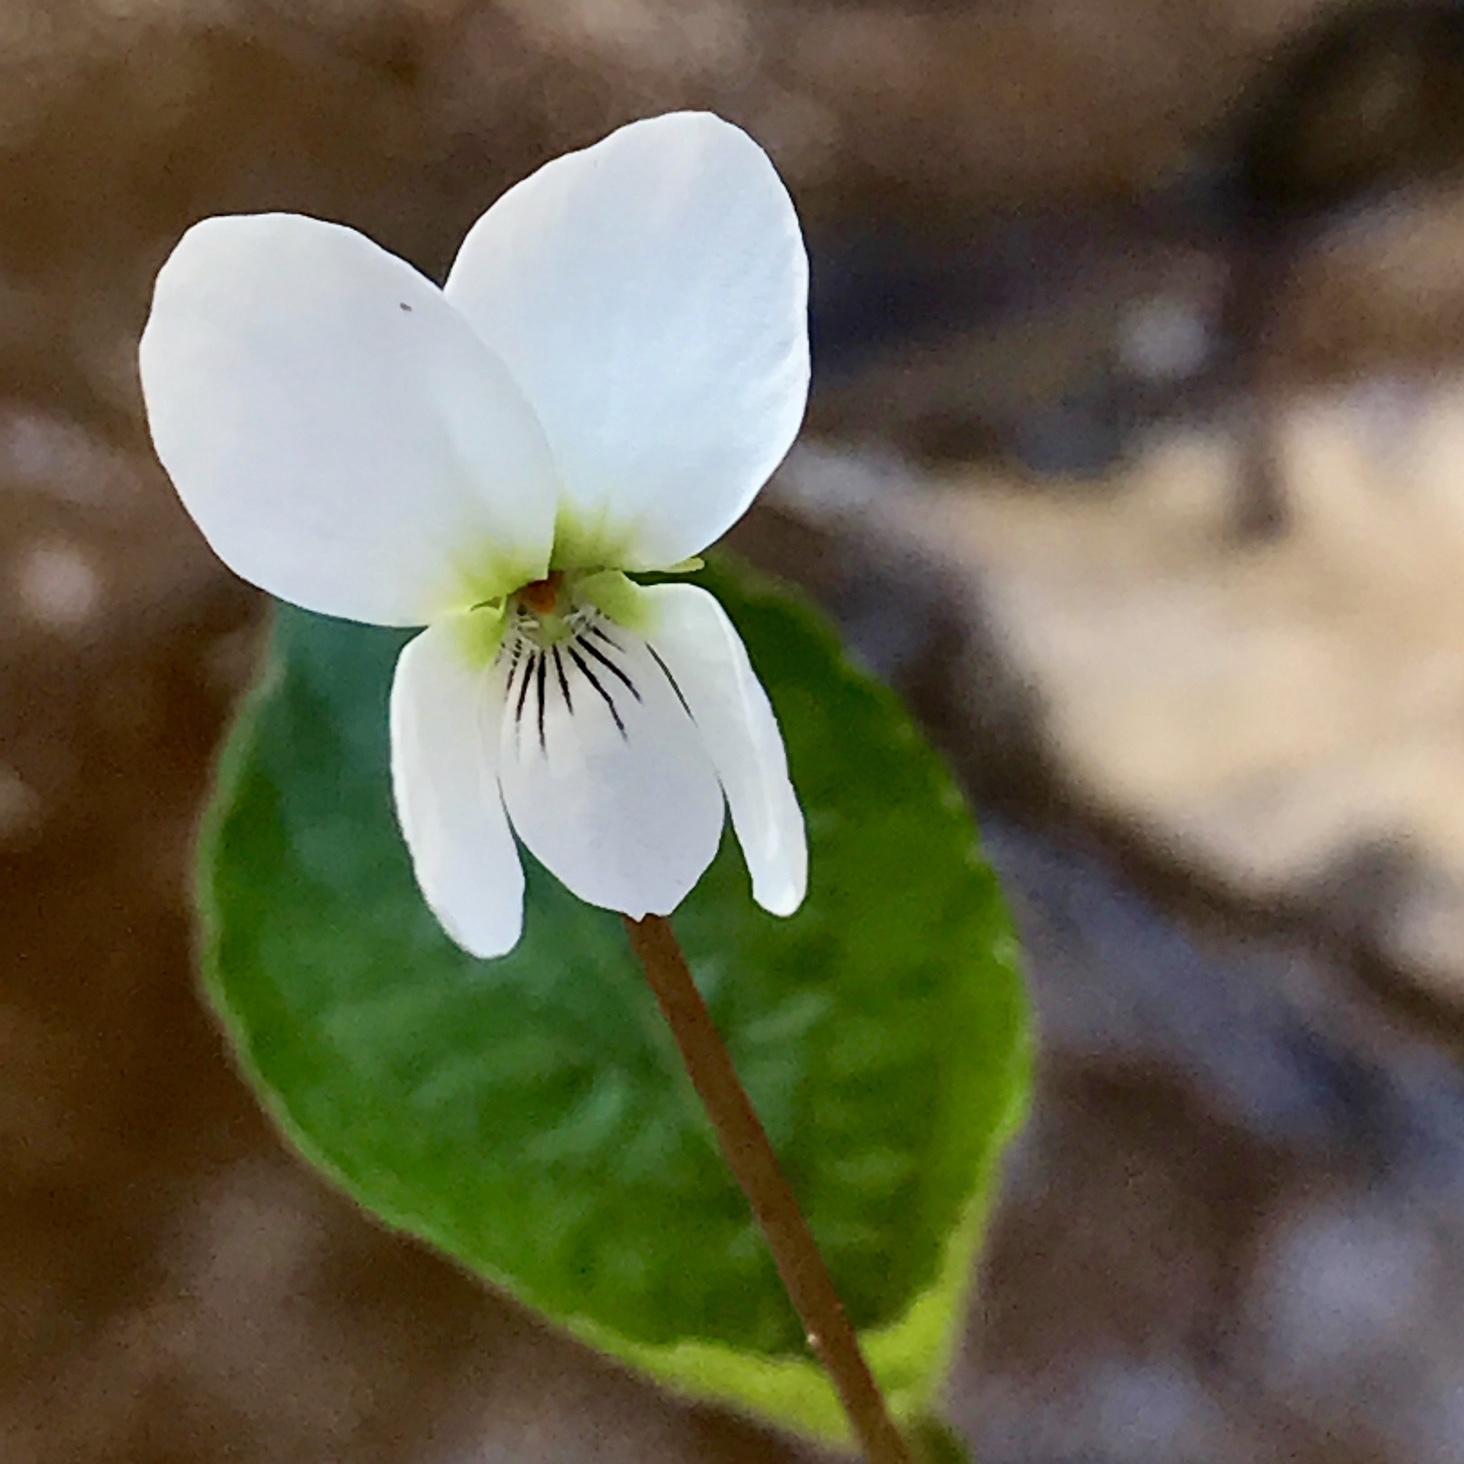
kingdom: Plantae
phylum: Tracheophyta
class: Magnoliopsida
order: Malpighiales
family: Violaceae
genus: Viola
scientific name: Viola primulifolia
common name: Primrose-leaf violet
